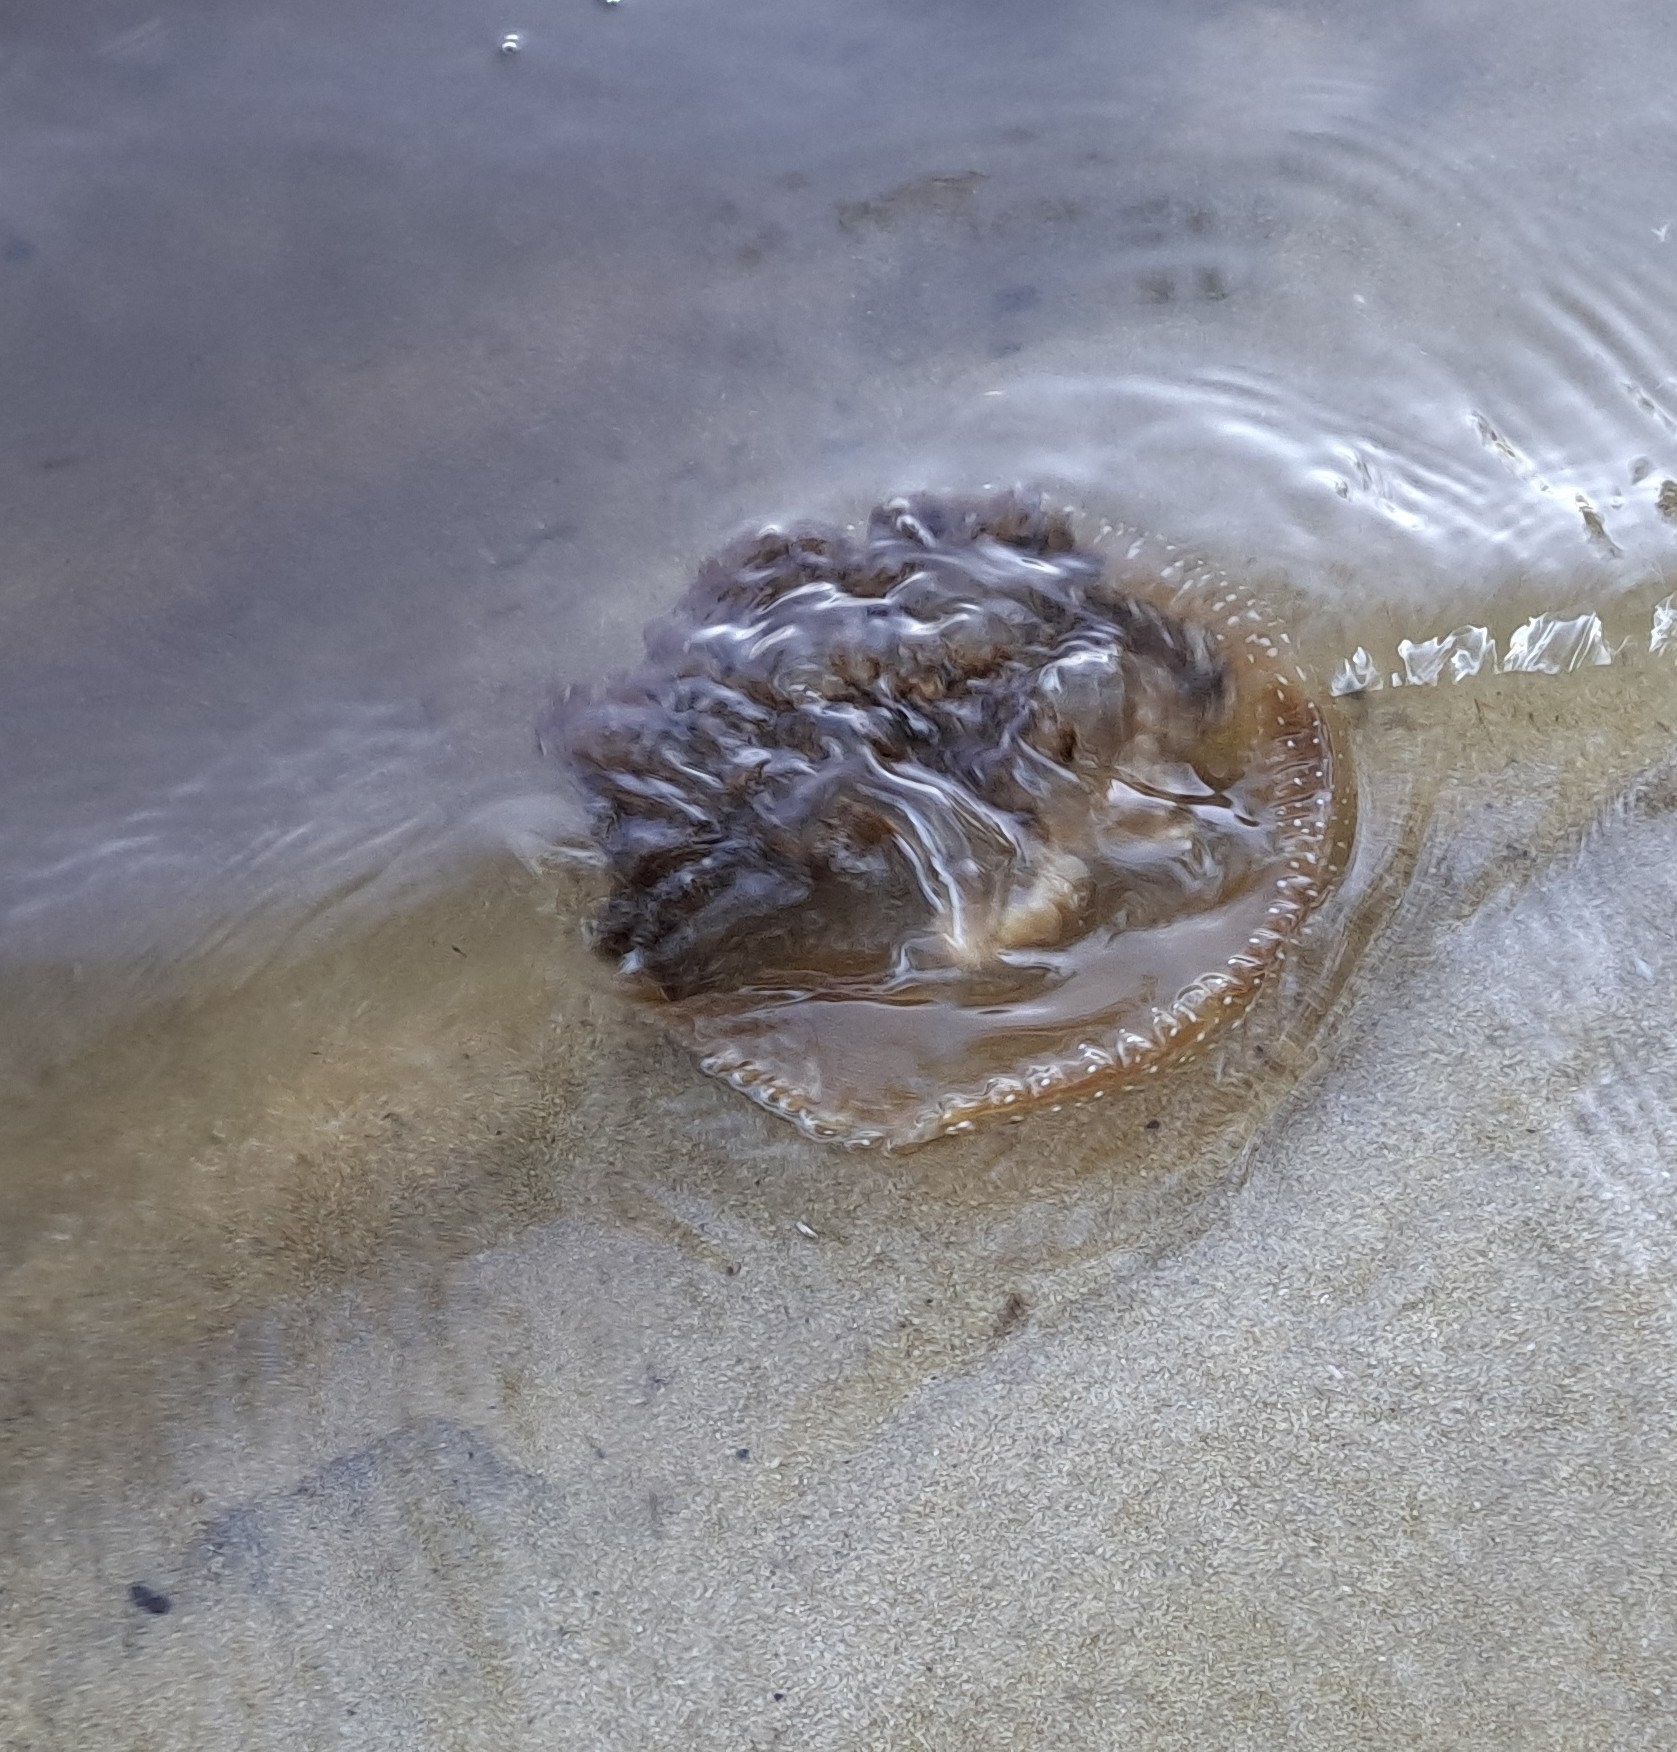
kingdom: Animalia
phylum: Cnidaria
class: Scyphozoa
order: Rhizostomeae
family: Mastigiidae
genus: Phyllorhiza
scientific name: Phyllorhiza punctata
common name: Australian spotted jellyfish
